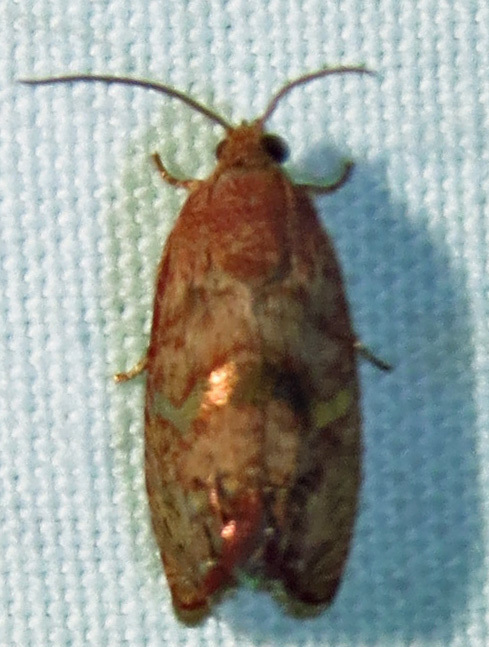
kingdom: Animalia
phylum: Arthropoda
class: Insecta
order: Lepidoptera
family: Tortricidae
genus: Cydia
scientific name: Cydia latiferreana
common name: Filbertworm moth
